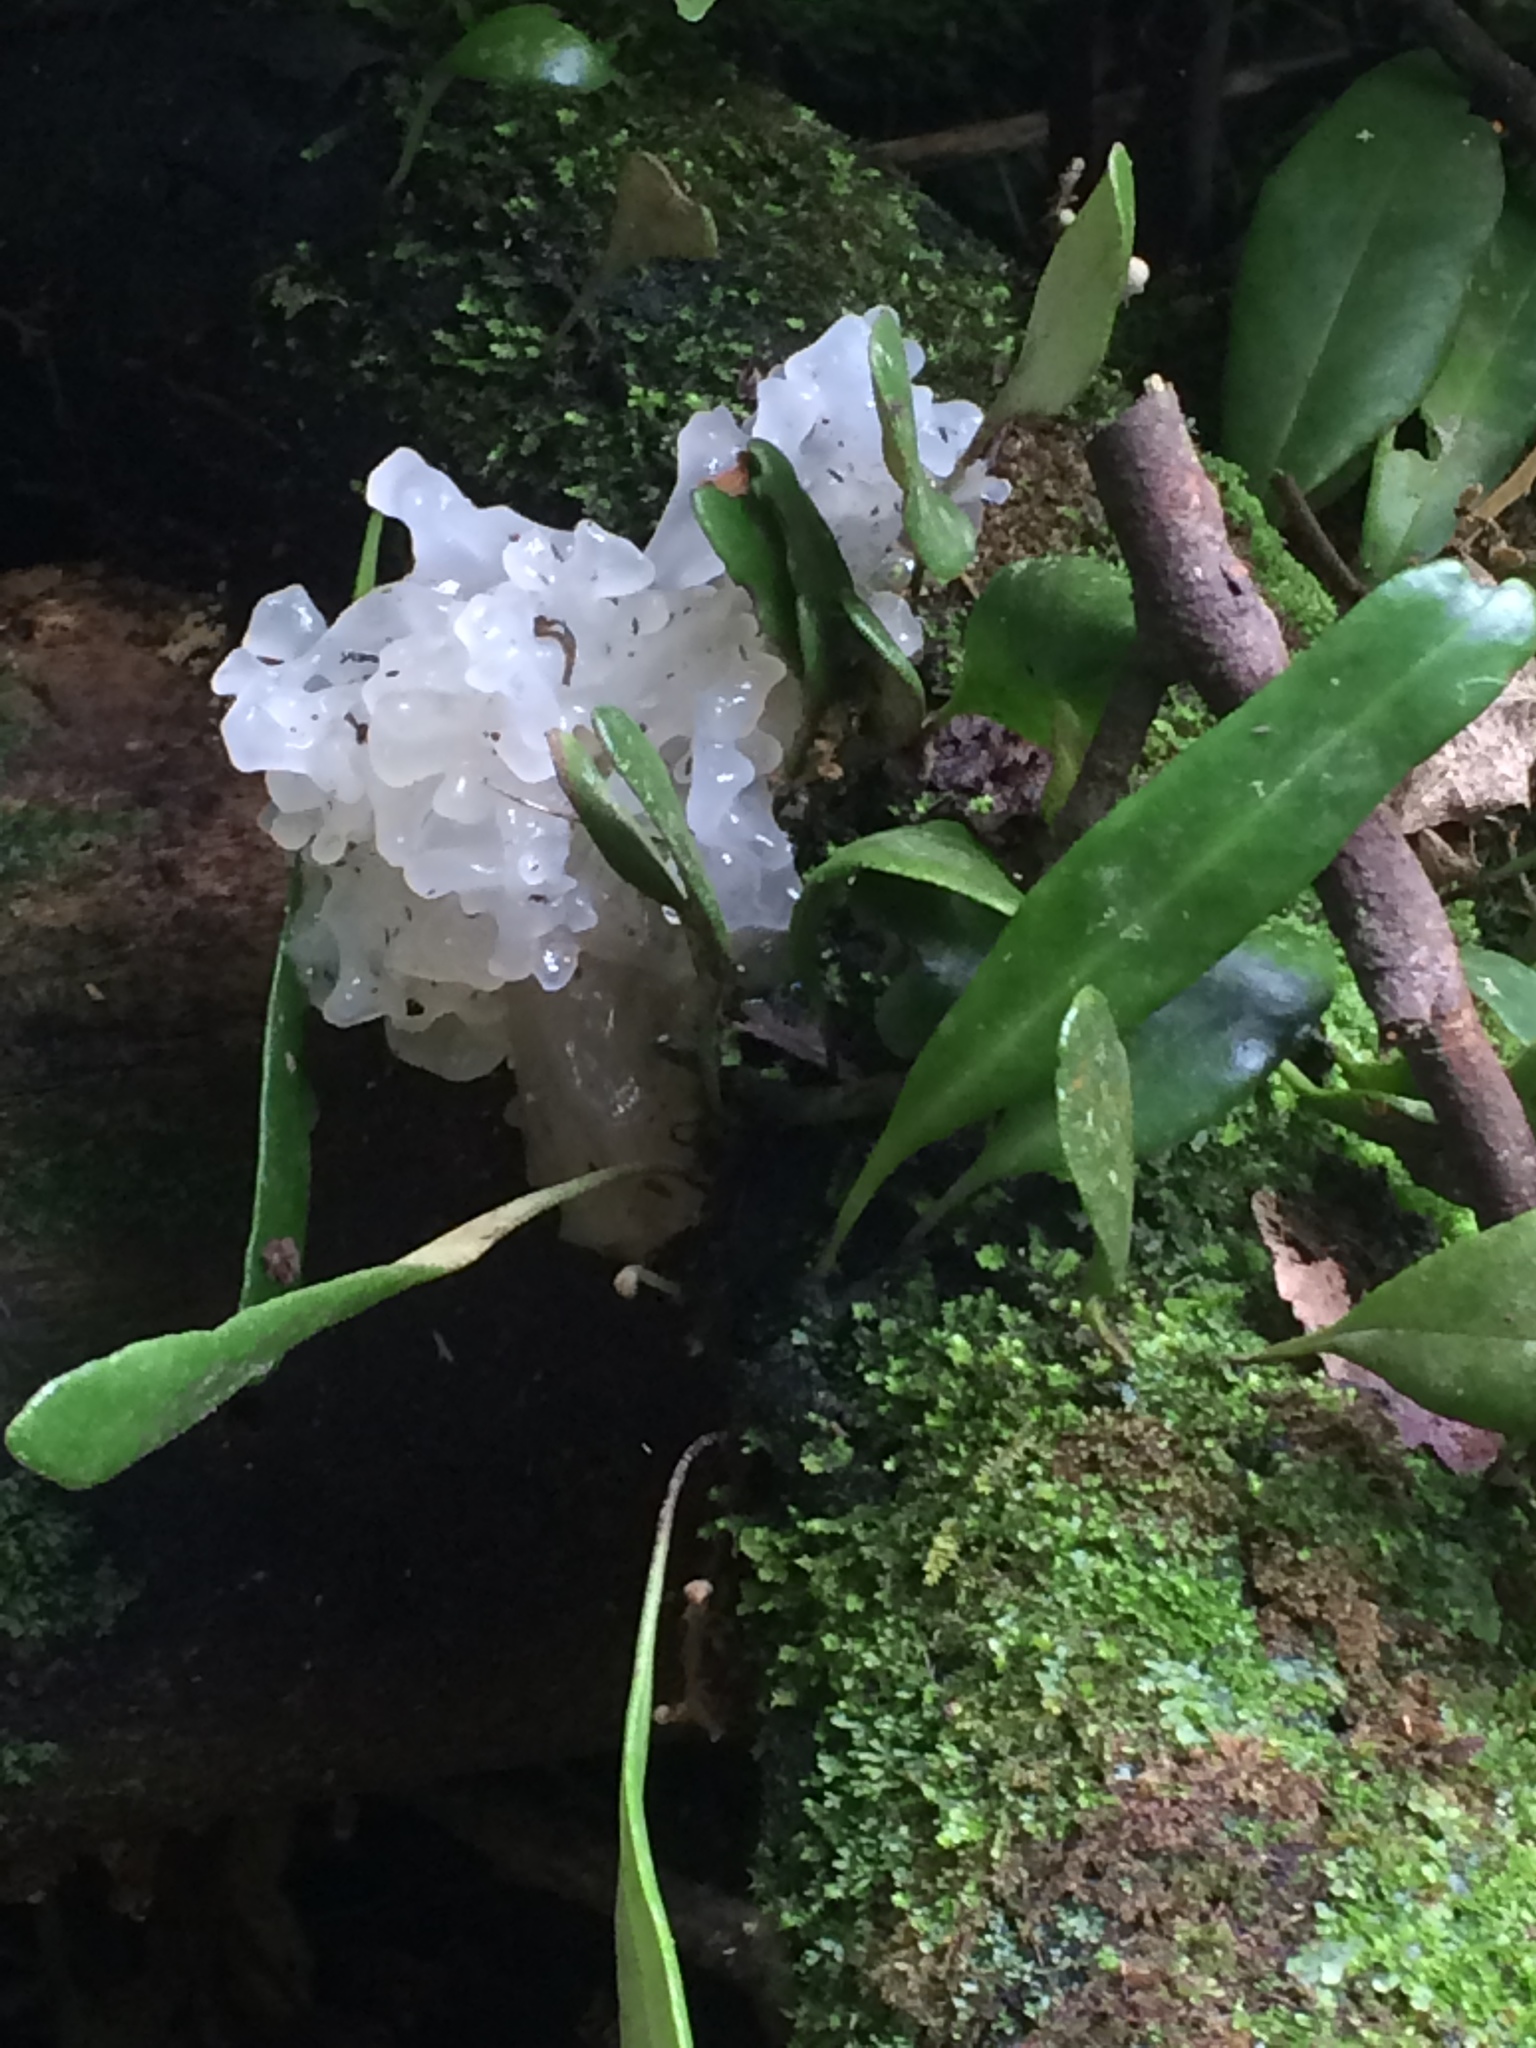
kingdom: Fungi
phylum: Basidiomycota
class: Tremellomycetes
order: Tremellales
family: Tremellaceae
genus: Tremella
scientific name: Tremella fuciformis
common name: Snow fungus
